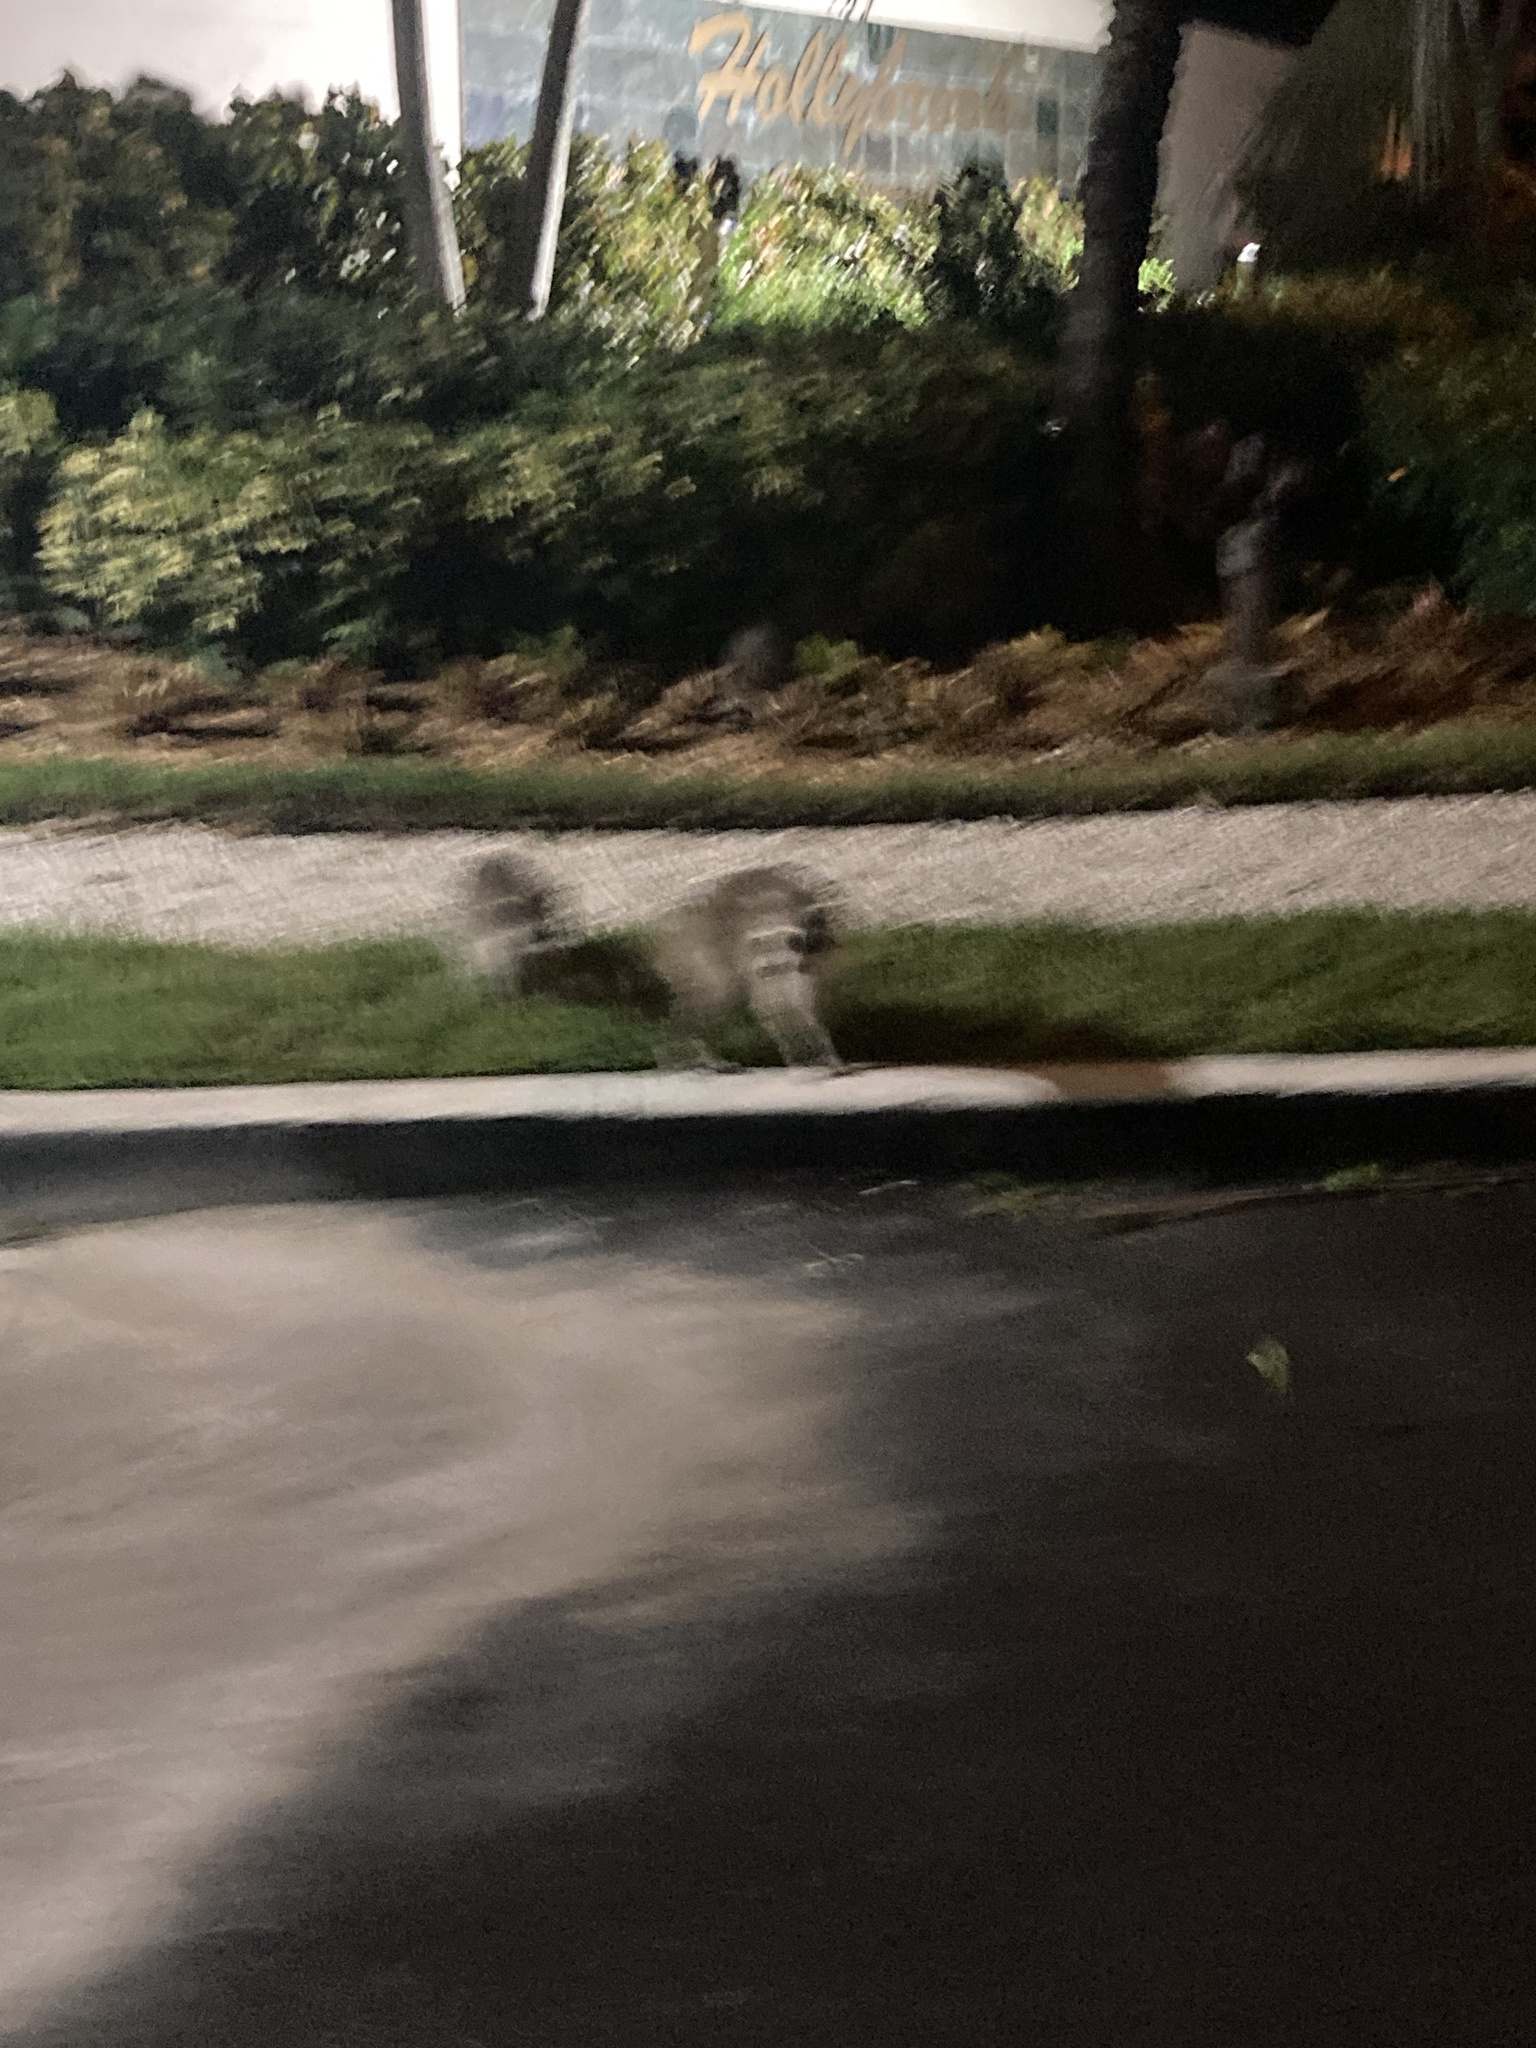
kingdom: Animalia
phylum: Chordata
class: Mammalia
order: Carnivora
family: Procyonidae
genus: Procyon
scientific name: Procyon lotor
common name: Raccoon
